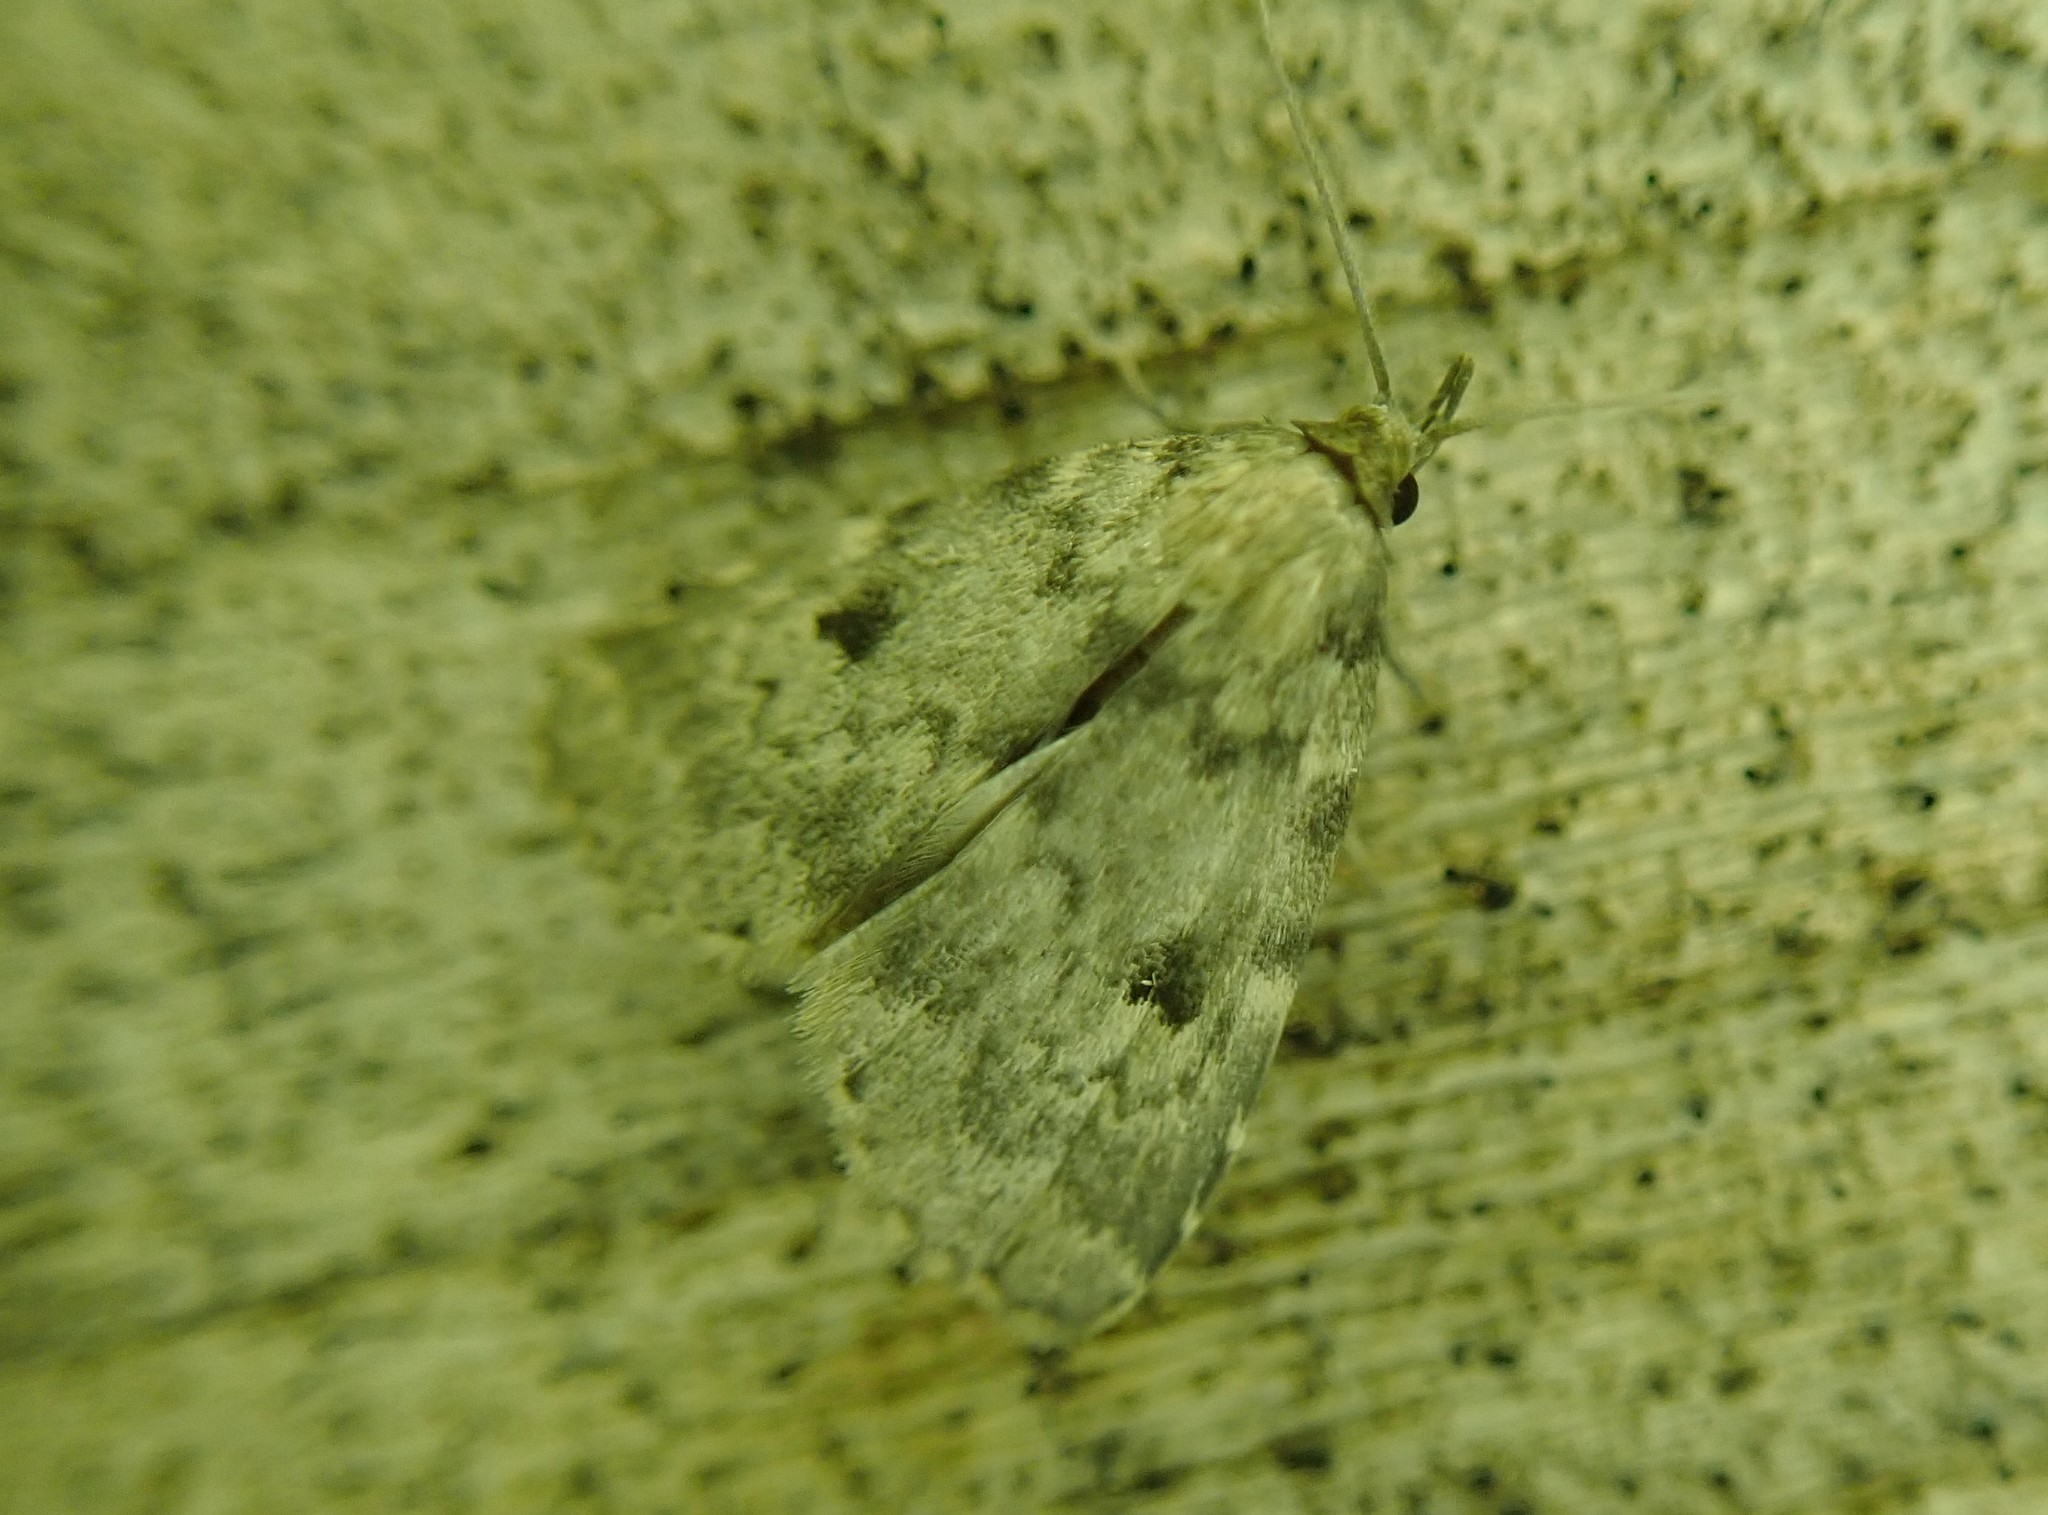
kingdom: Animalia
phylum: Arthropoda
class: Insecta
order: Lepidoptera
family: Erebidae
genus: Idia
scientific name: Idia aemula
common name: Common idia moth
